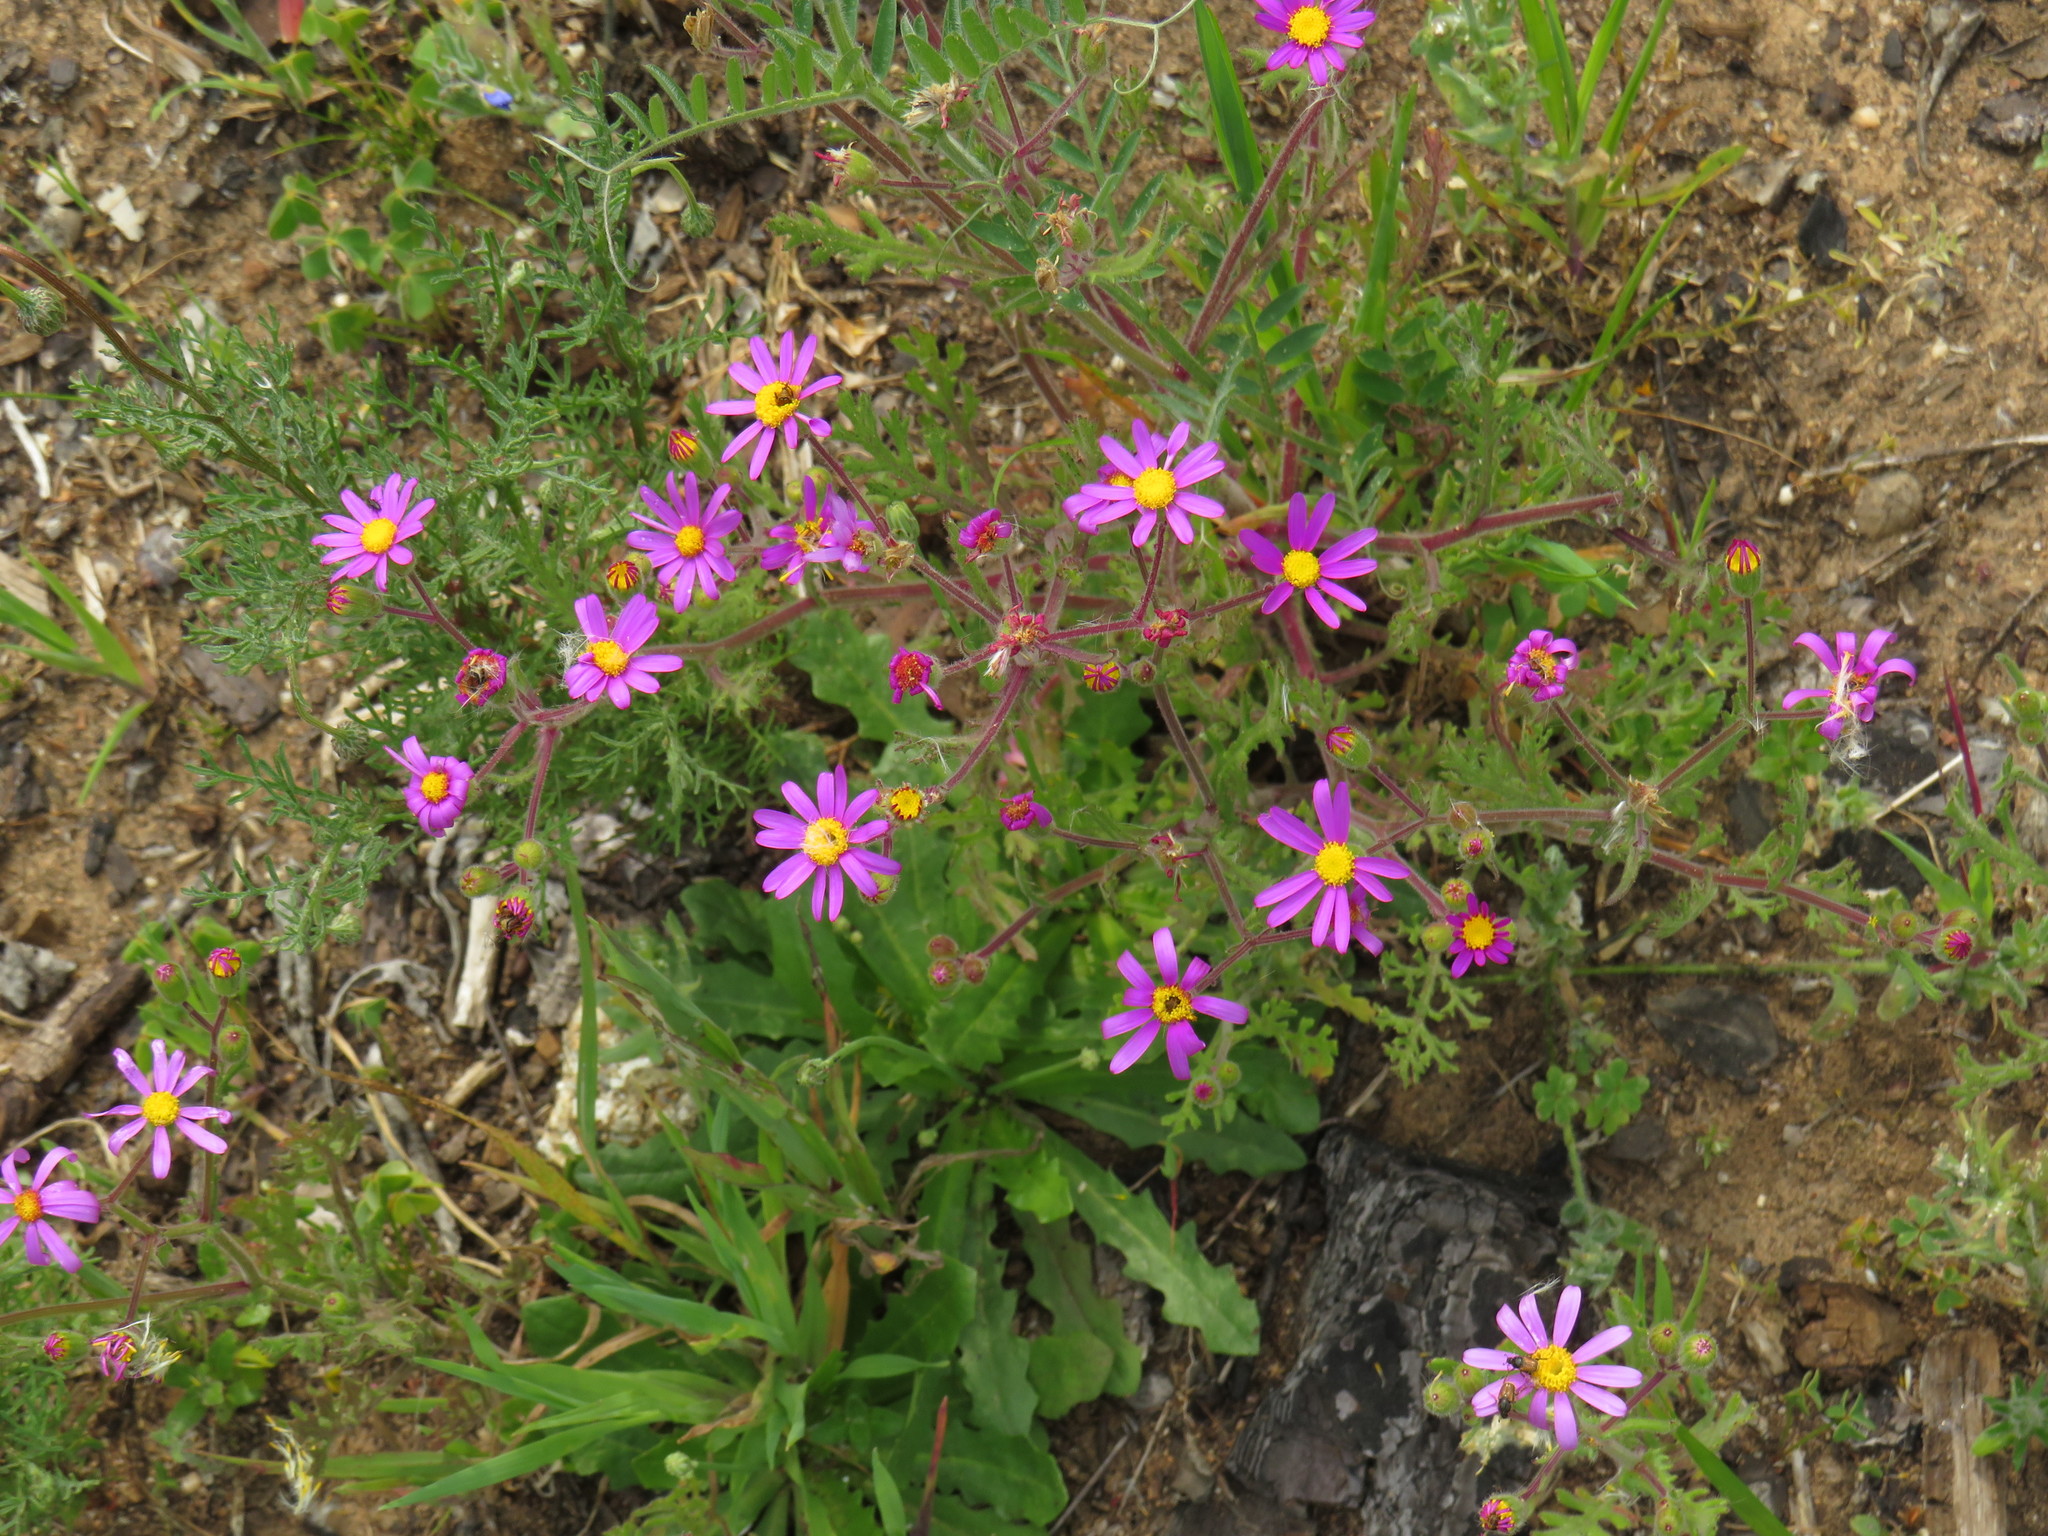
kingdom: Plantae
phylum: Tracheophyta
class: Magnoliopsida
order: Asterales
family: Asteraceae
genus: Senecio
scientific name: Senecio arenarius
